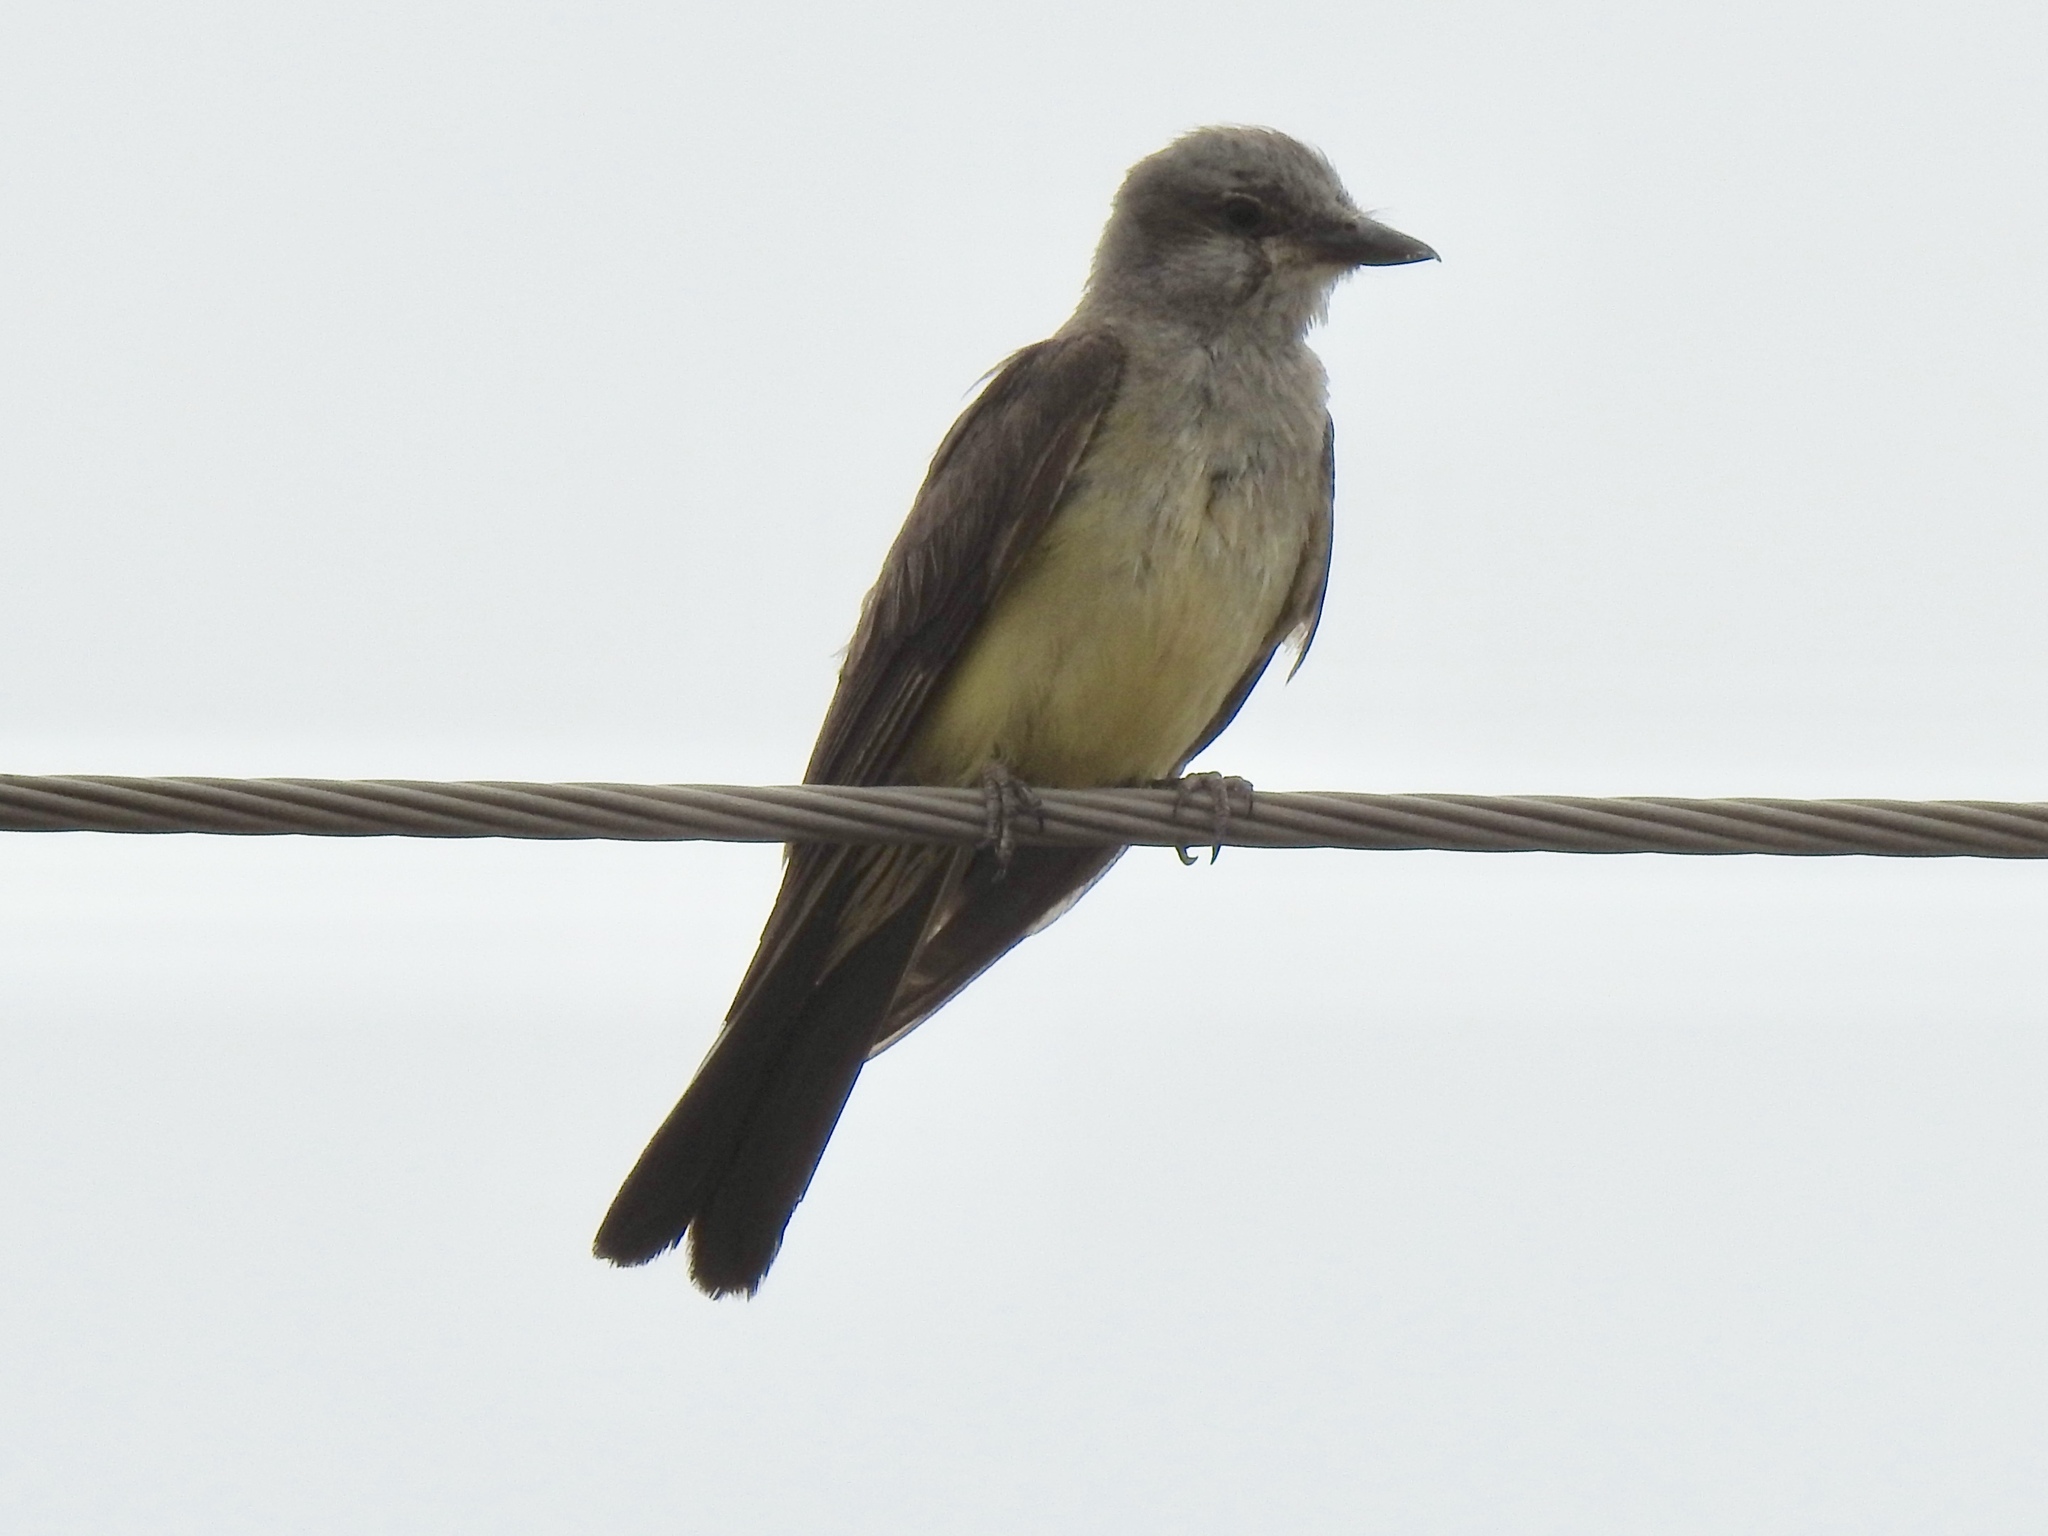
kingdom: Animalia
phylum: Chordata
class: Aves
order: Passeriformes
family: Tyrannidae
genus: Tyrannus
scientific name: Tyrannus verticalis
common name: Western kingbird
